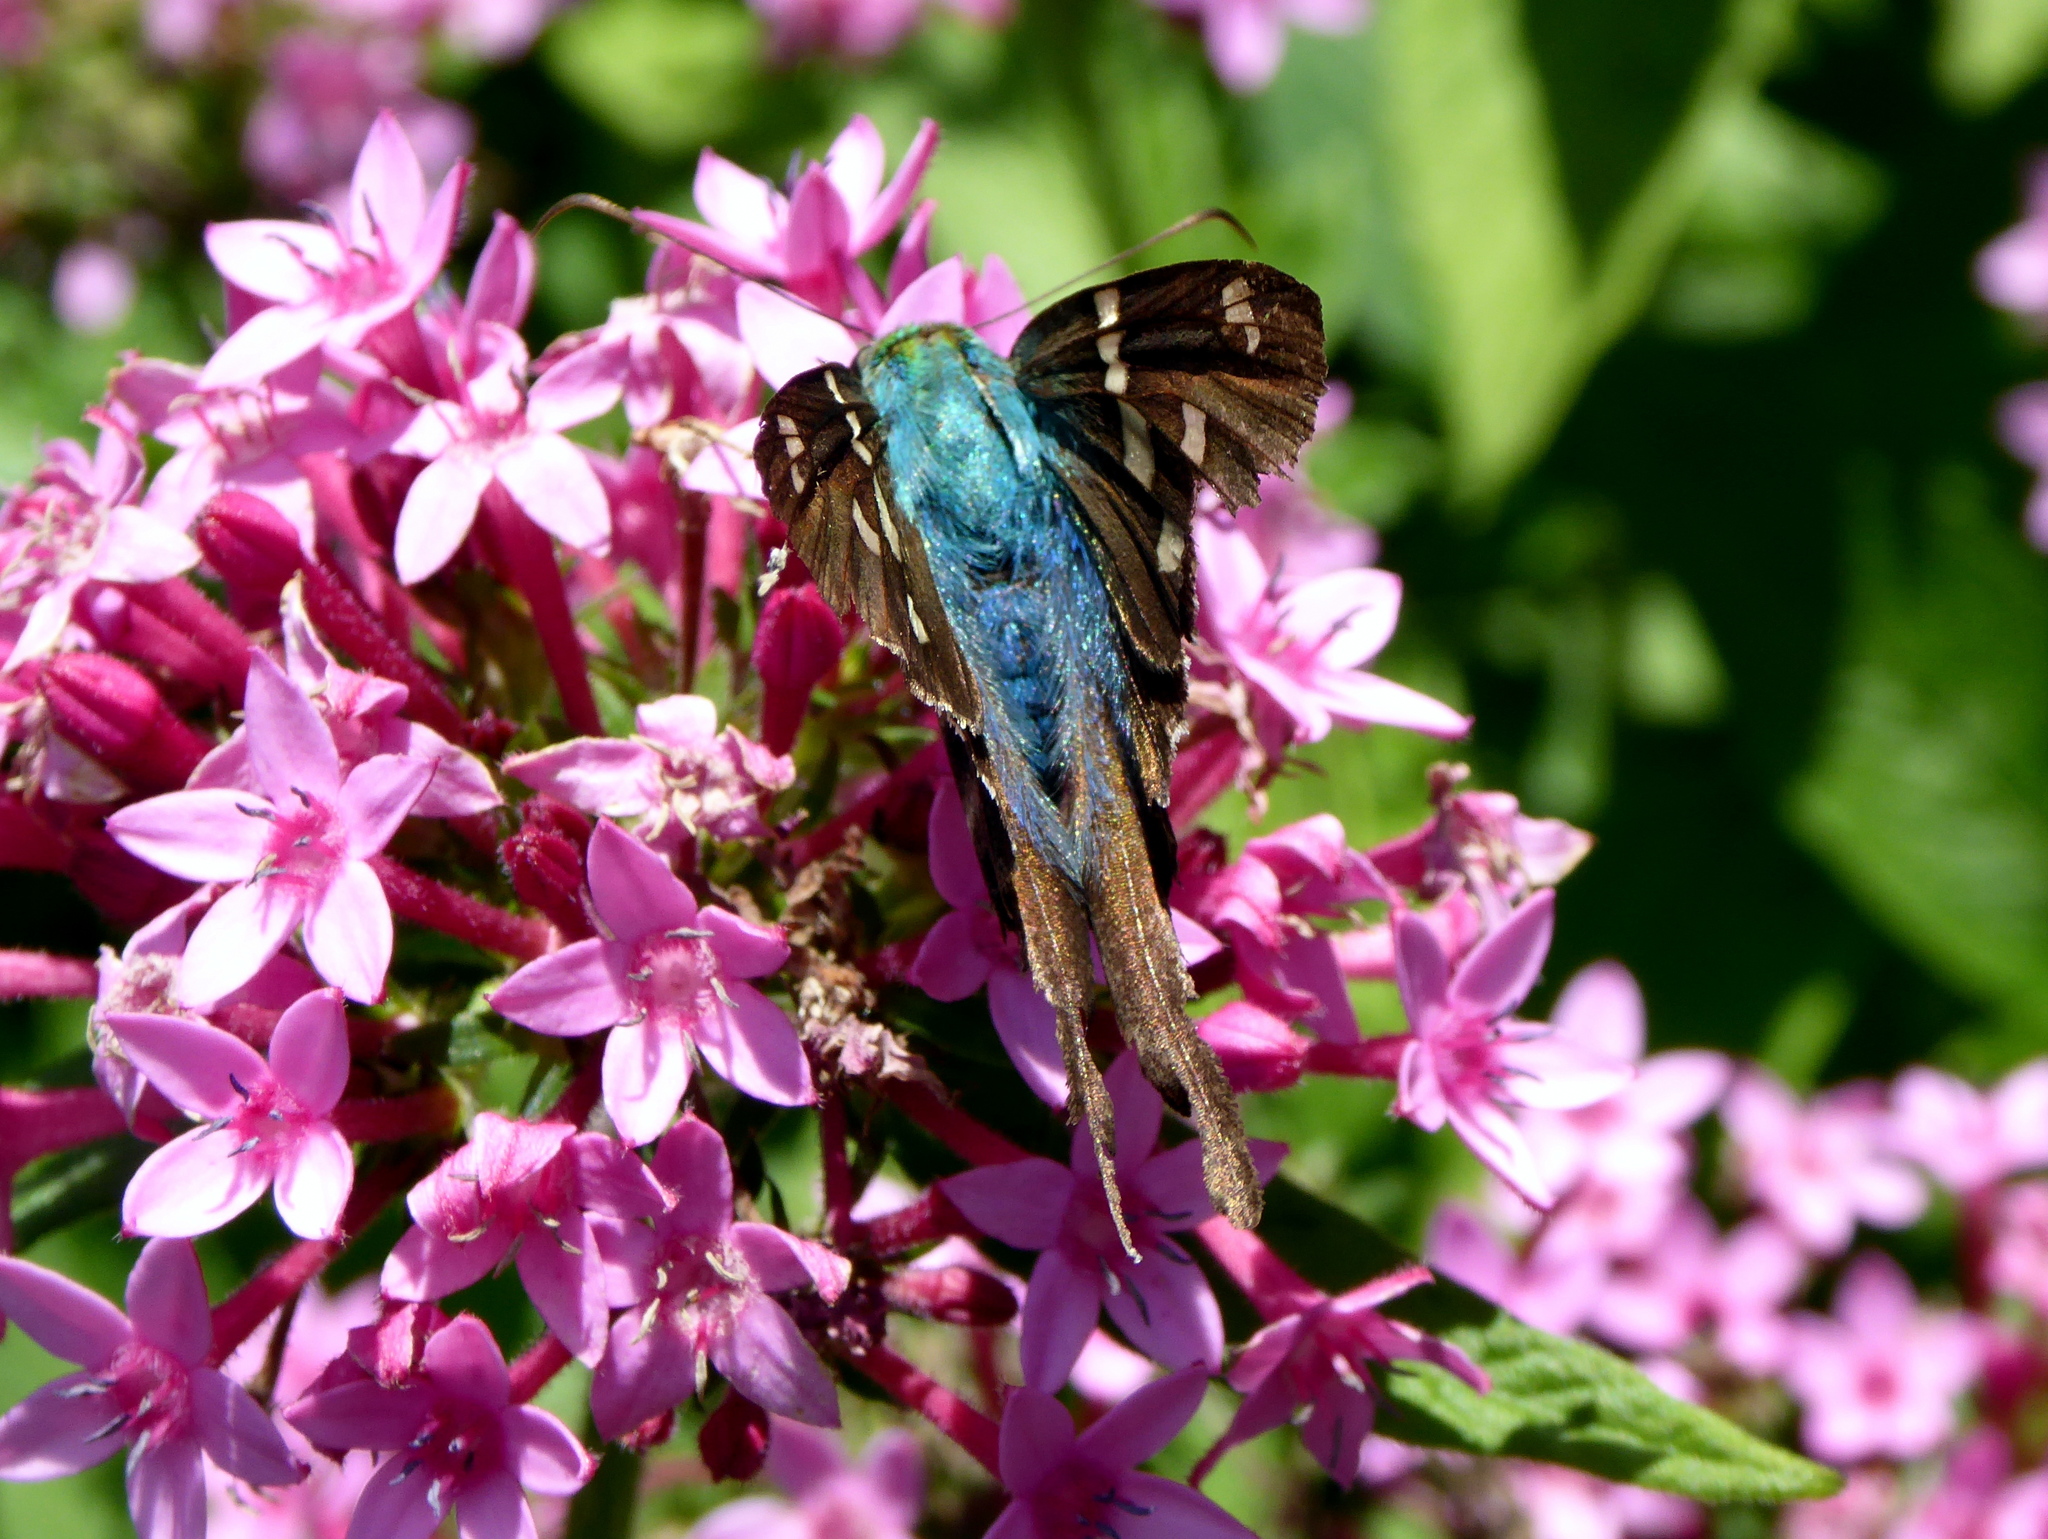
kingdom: Animalia
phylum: Arthropoda
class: Insecta
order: Lepidoptera
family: Hesperiidae
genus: Urbanus
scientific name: Urbanus proteus
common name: Long-tailed skipper
